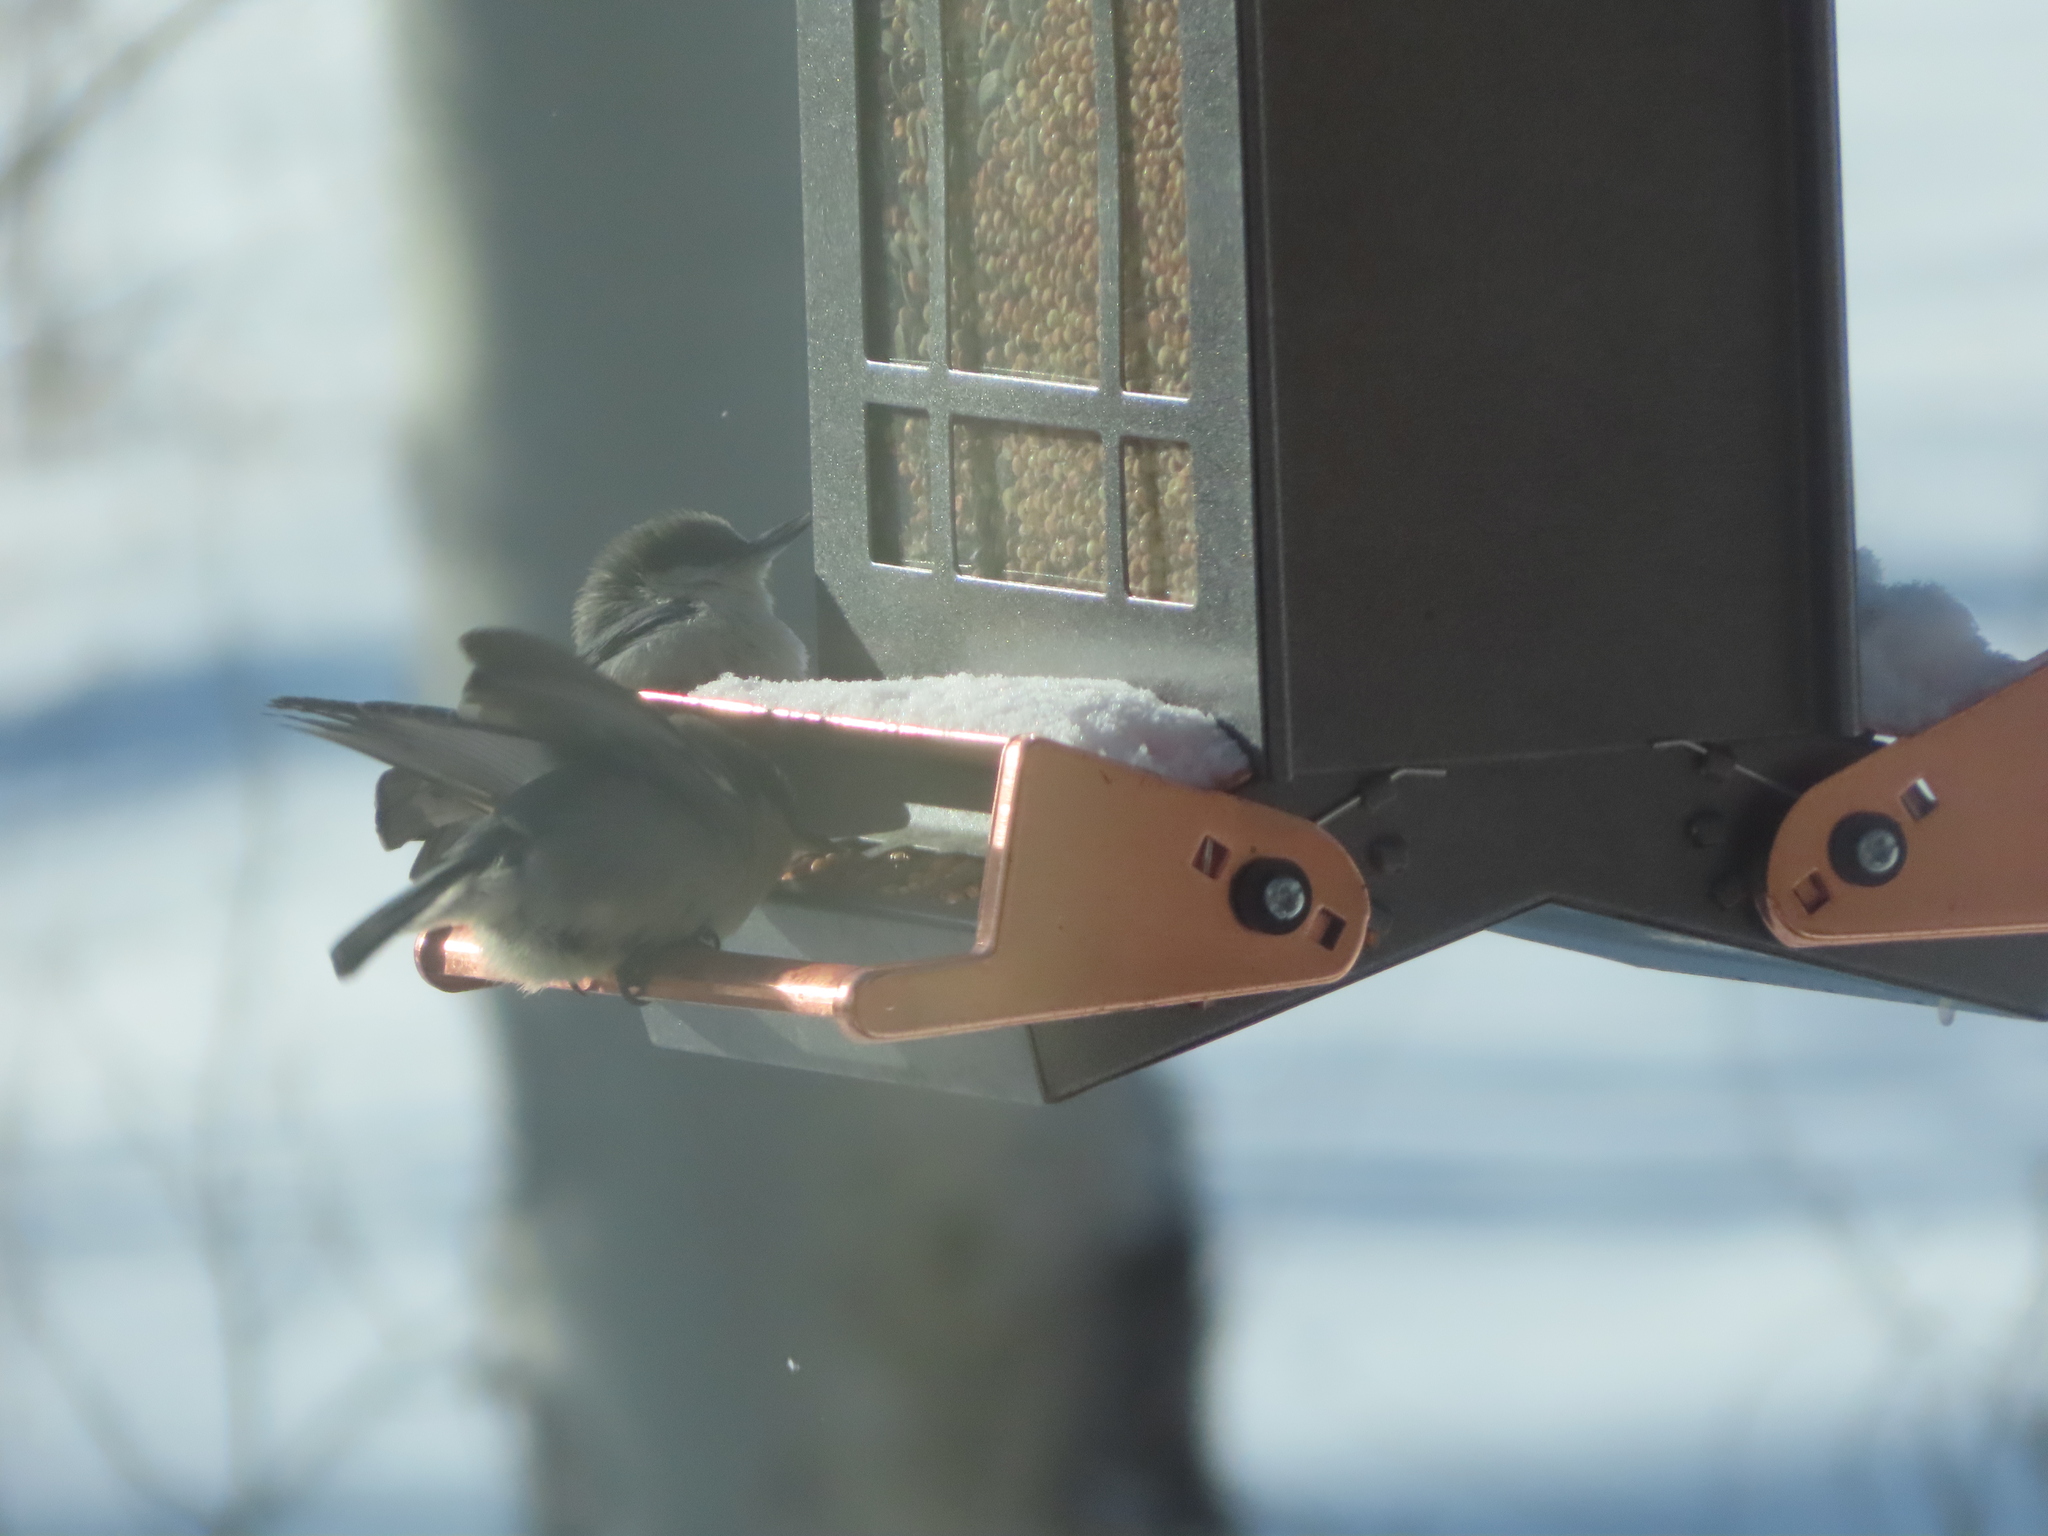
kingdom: Animalia
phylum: Chordata
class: Aves
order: Passeriformes
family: Sittidae
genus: Sitta
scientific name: Sitta pygmaea
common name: Pygmy nuthatch
